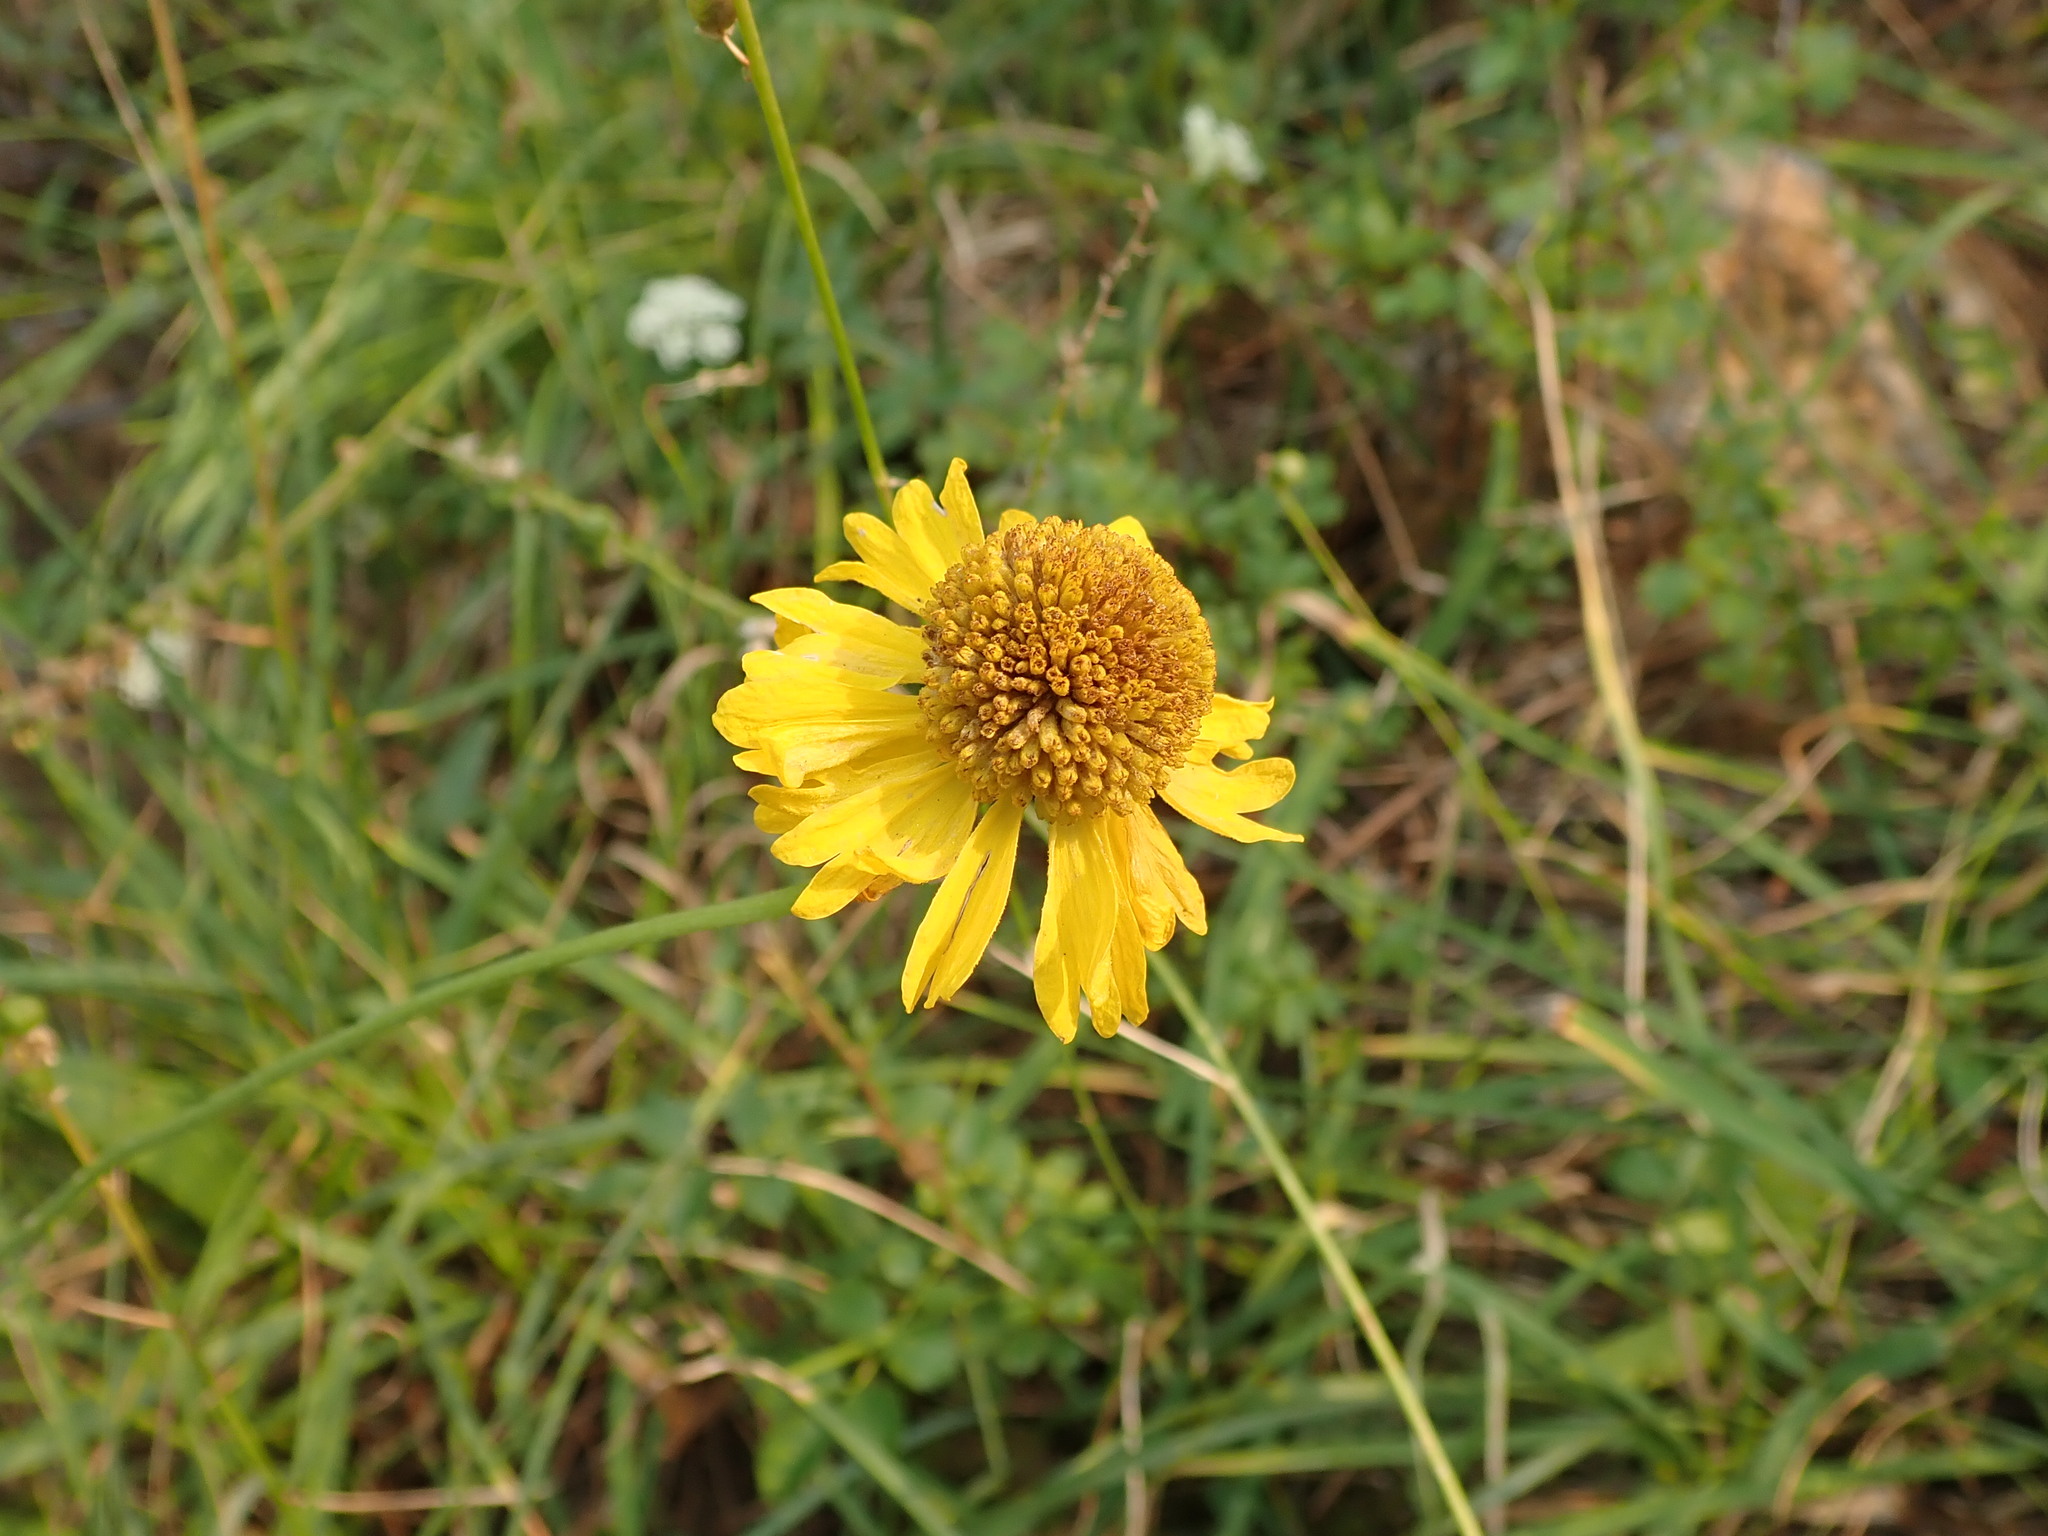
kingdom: Plantae
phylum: Tracheophyta
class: Magnoliopsida
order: Asterales
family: Asteraceae
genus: Helenium
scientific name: Helenium bigelovii
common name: Bigelow's sneezeweed
